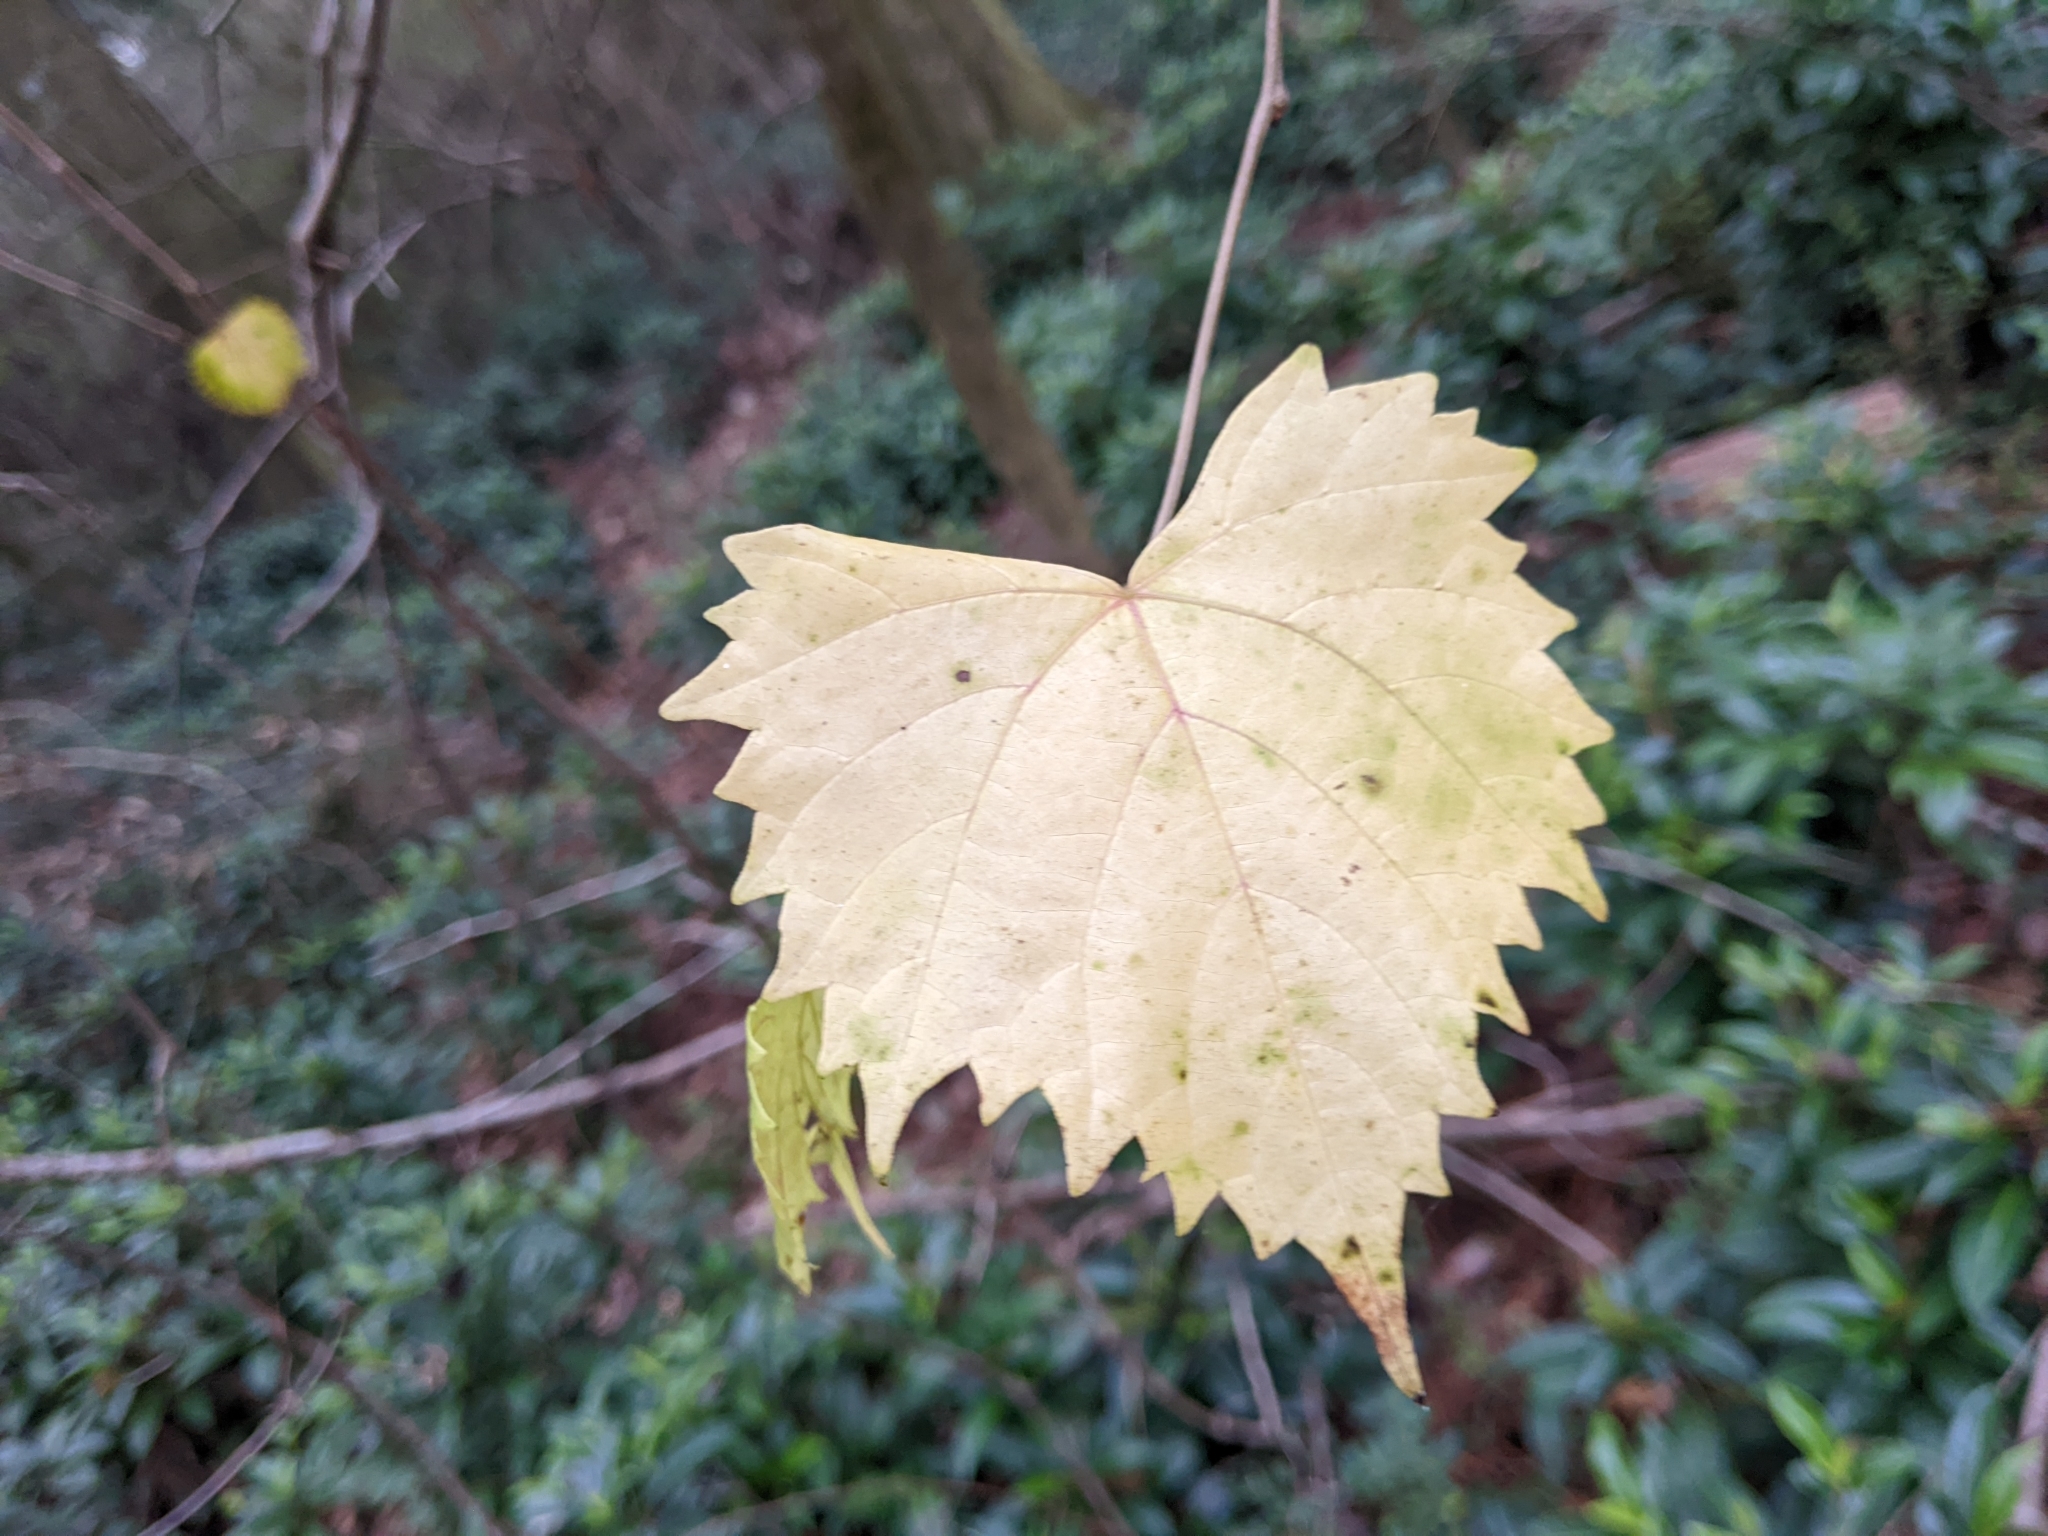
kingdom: Plantae
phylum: Tracheophyta
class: Magnoliopsida
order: Vitales
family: Vitaceae
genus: Vitis
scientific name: Vitis rotundifolia
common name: Muscadine grape
